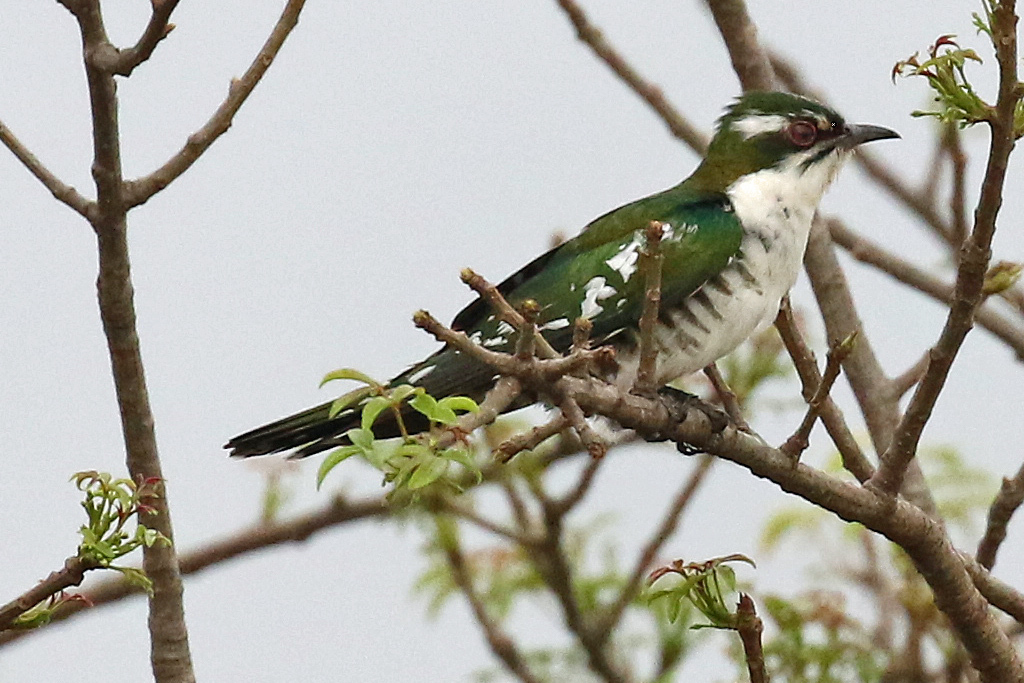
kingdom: Animalia
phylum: Chordata
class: Aves
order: Cuculiformes
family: Cuculidae
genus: Chrysococcyx
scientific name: Chrysococcyx caprius
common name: Diederik cuckoo
